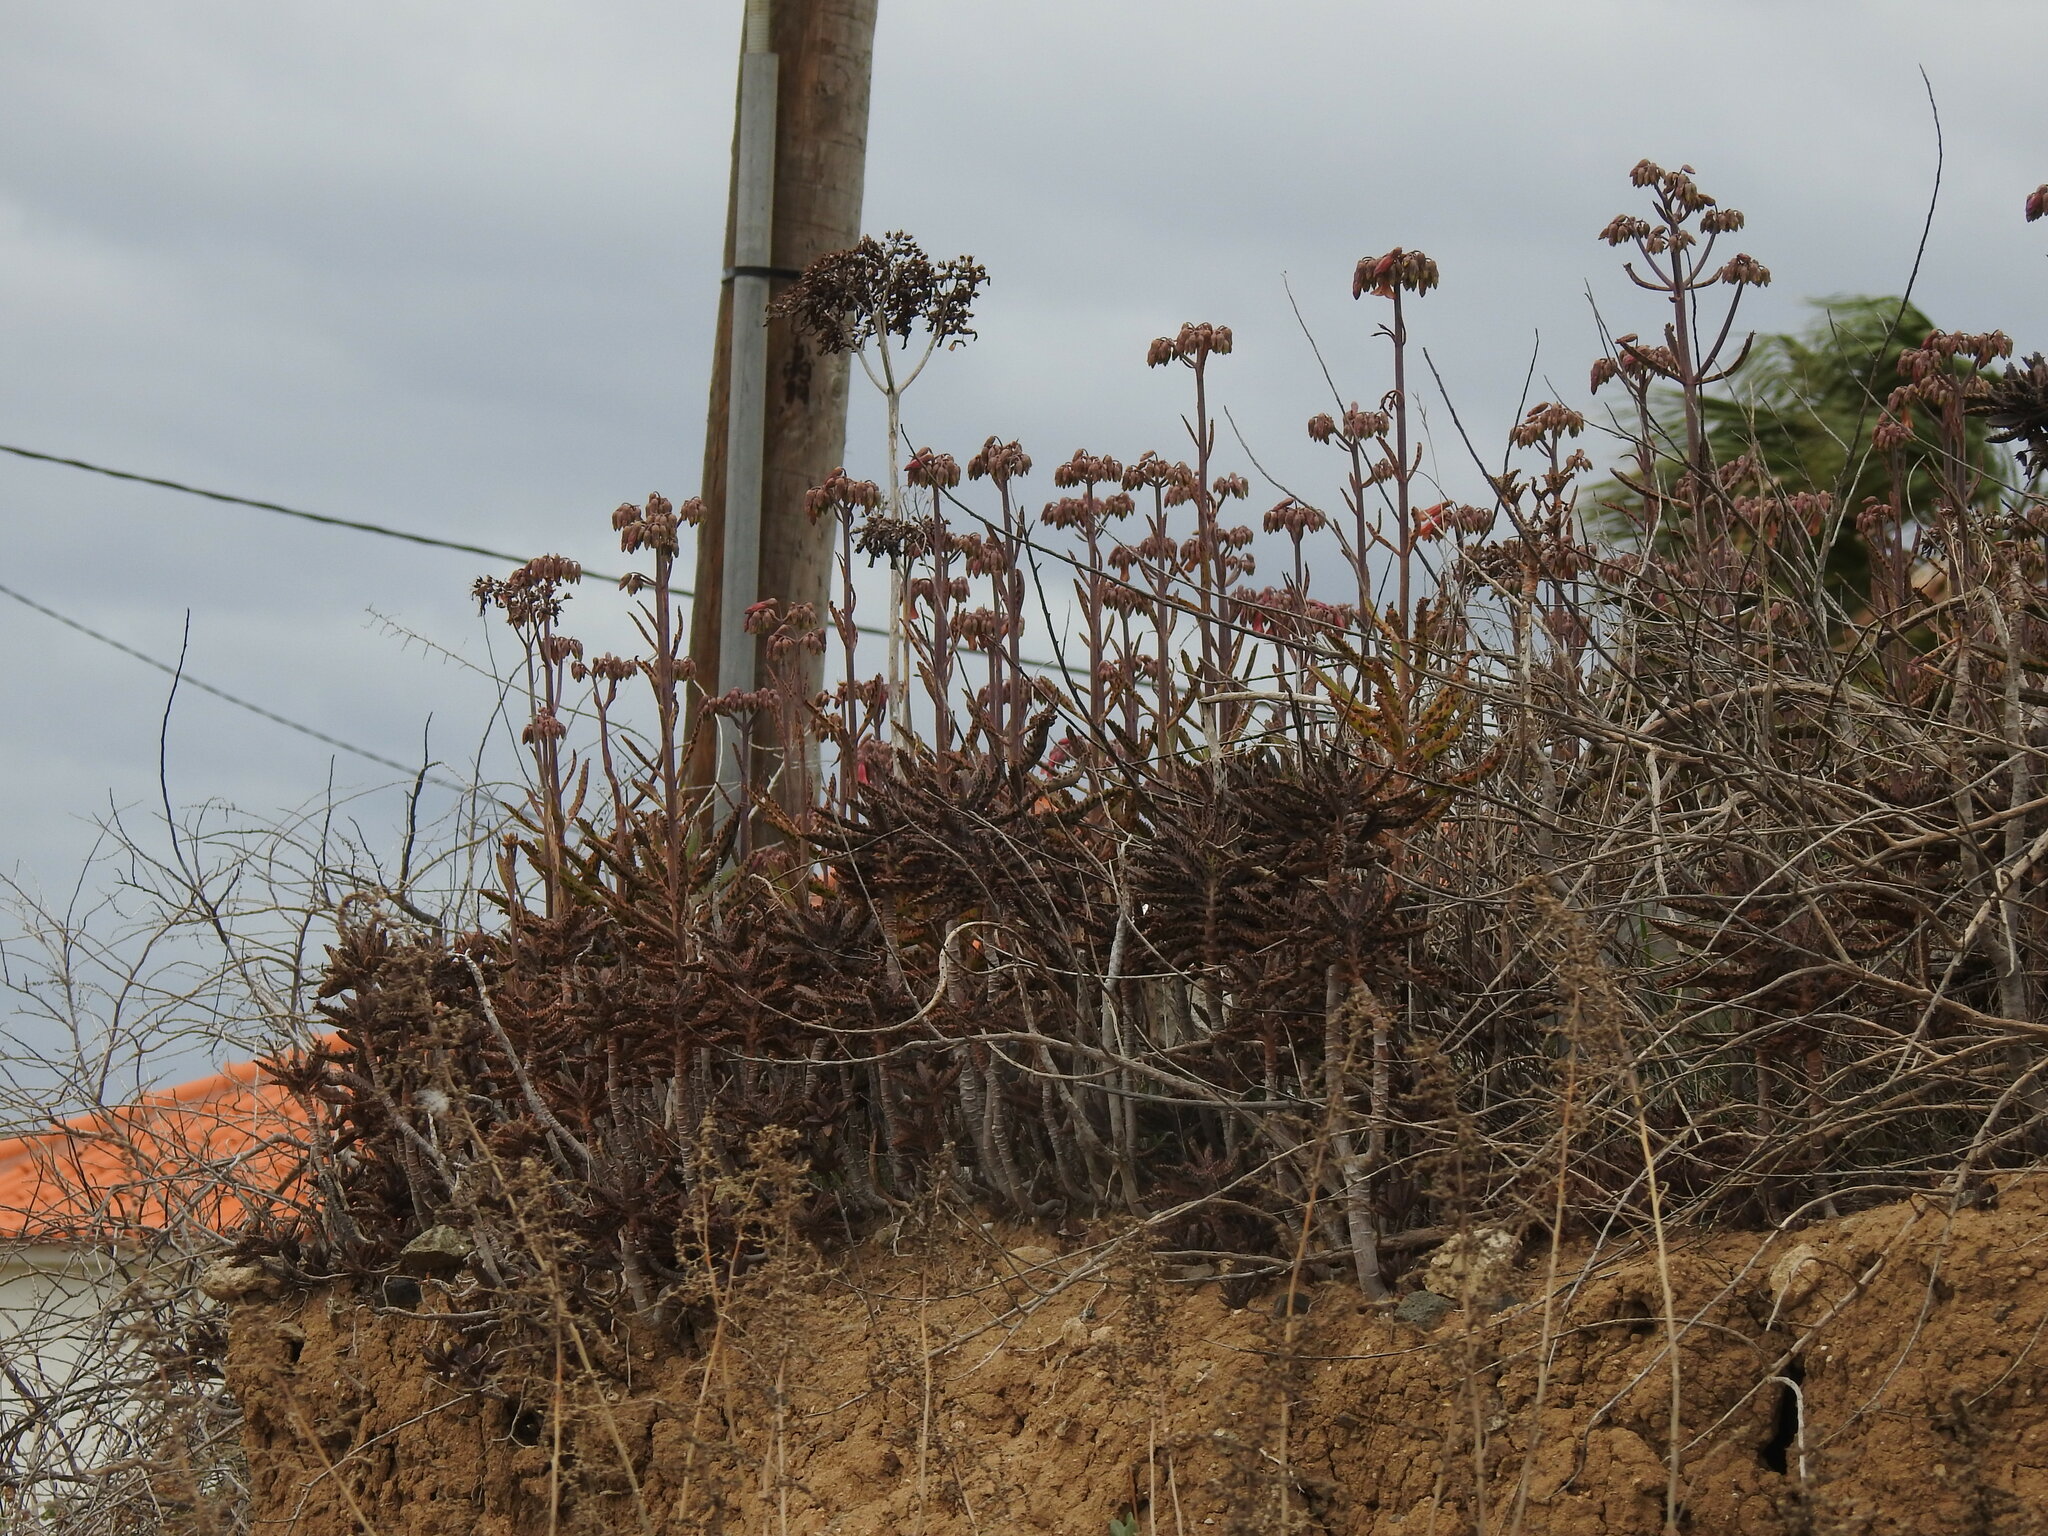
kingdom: Plantae
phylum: Tracheophyta
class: Magnoliopsida
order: Saxifragales
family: Crassulaceae
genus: Kalanchoe
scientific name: Kalanchoe houghtonii
